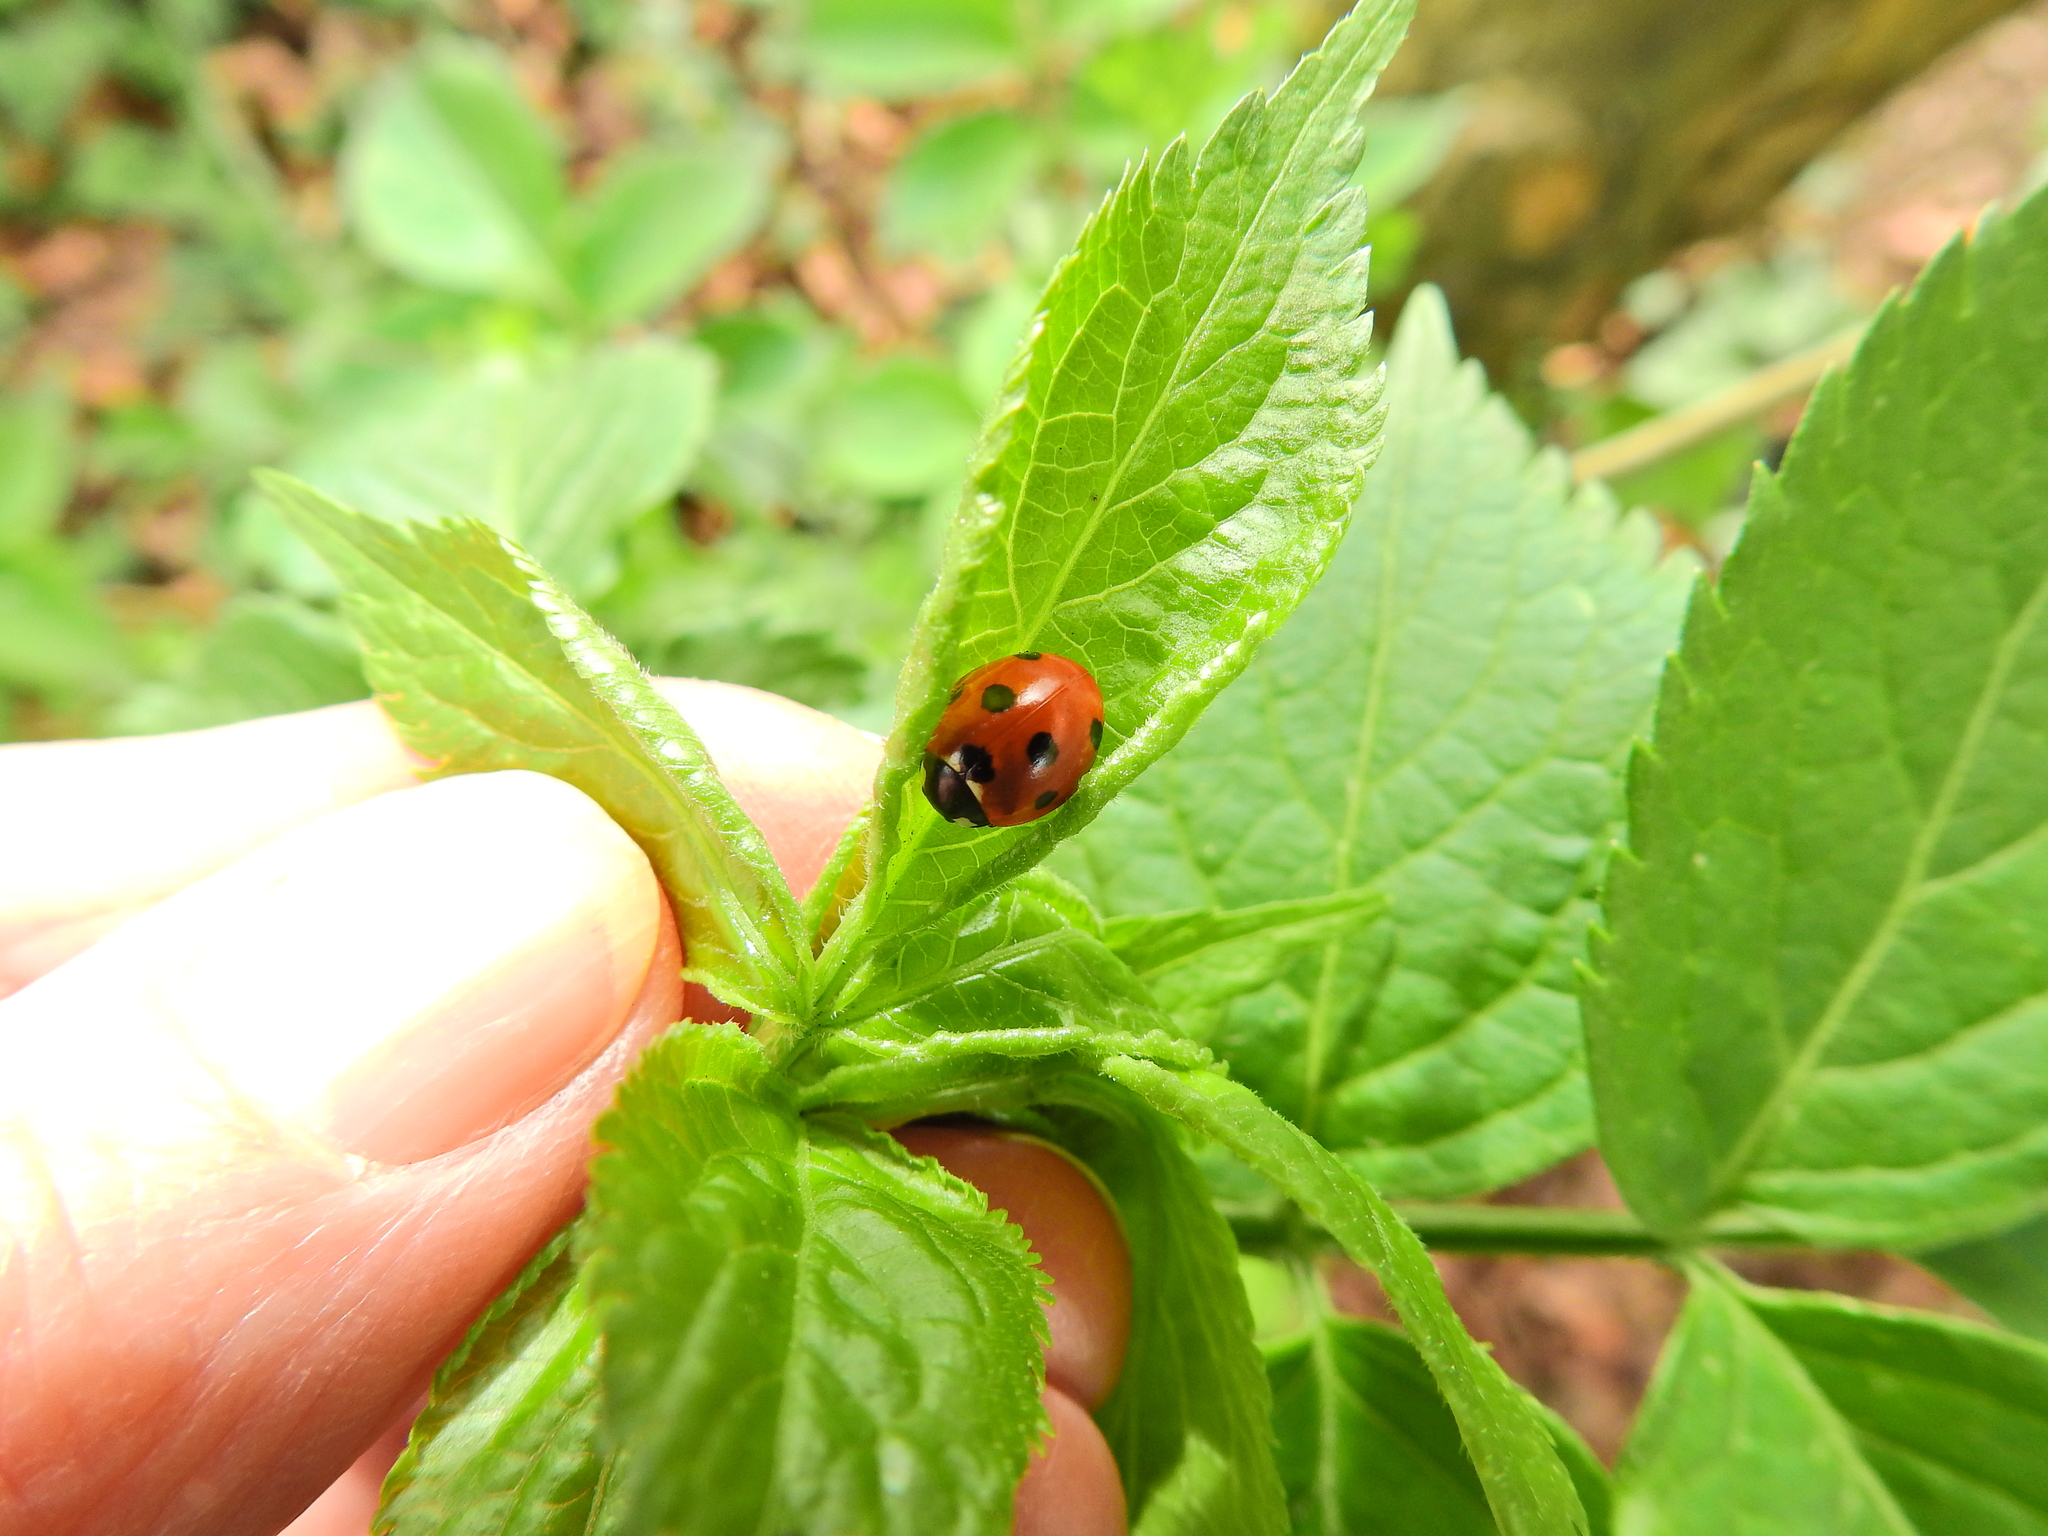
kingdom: Animalia
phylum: Arthropoda
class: Insecta
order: Coleoptera
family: Coccinellidae
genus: Coccinella
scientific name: Coccinella septempunctata
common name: Sevenspotted lady beetle
